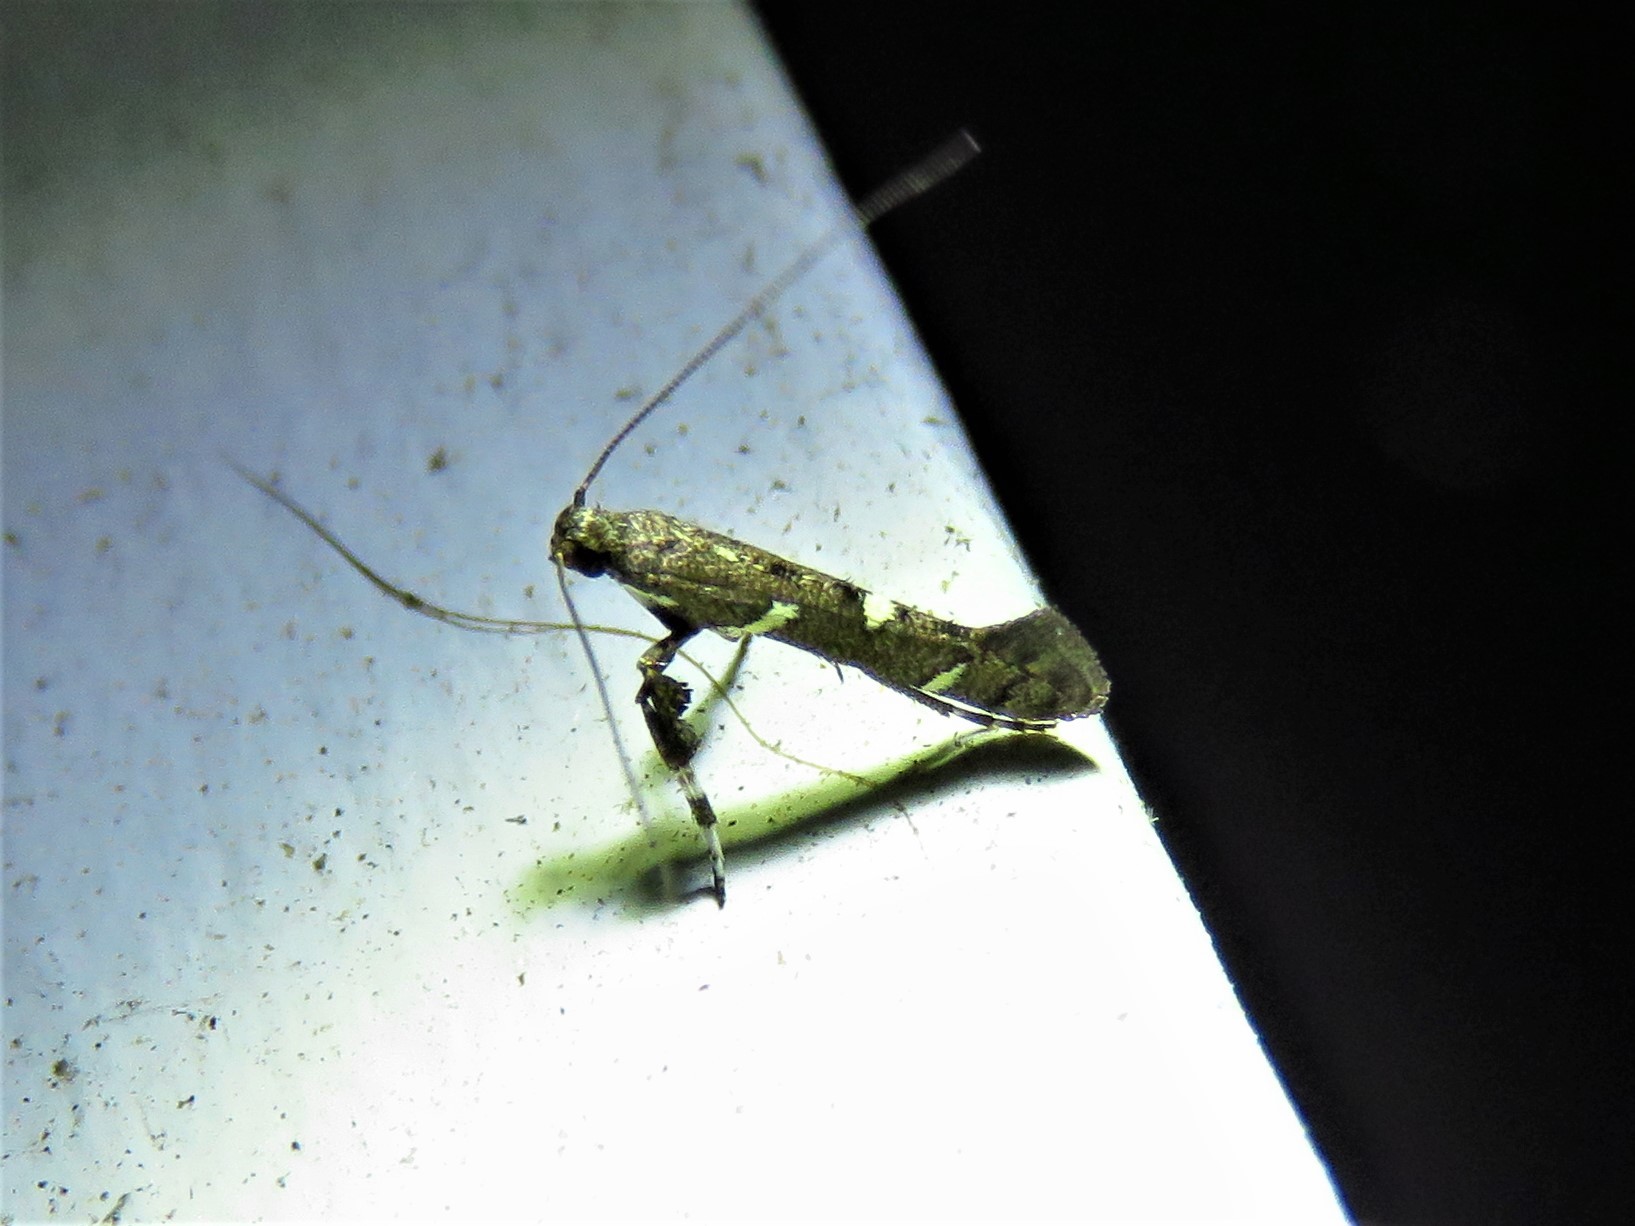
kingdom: Animalia
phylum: Arthropoda
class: Insecta
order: Lepidoptera
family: Gracillariidae
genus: Caloptilia
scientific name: Caloptilia triadicae
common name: Tallow leaf roller
